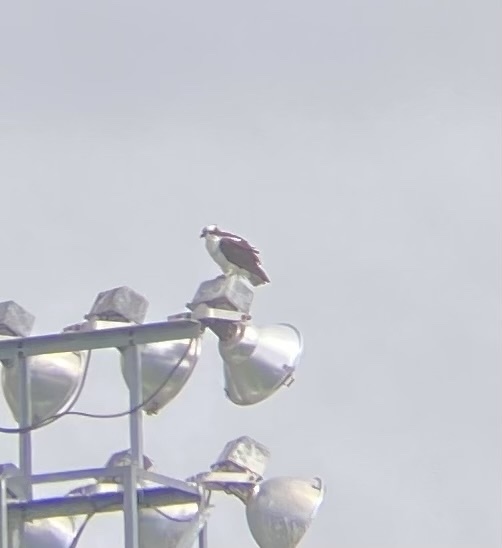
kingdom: Animalia
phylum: Chordata
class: Aves
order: Accipitriformes
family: Pandionidae
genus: Pandion
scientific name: Pandion haliaetus
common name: Osprey
